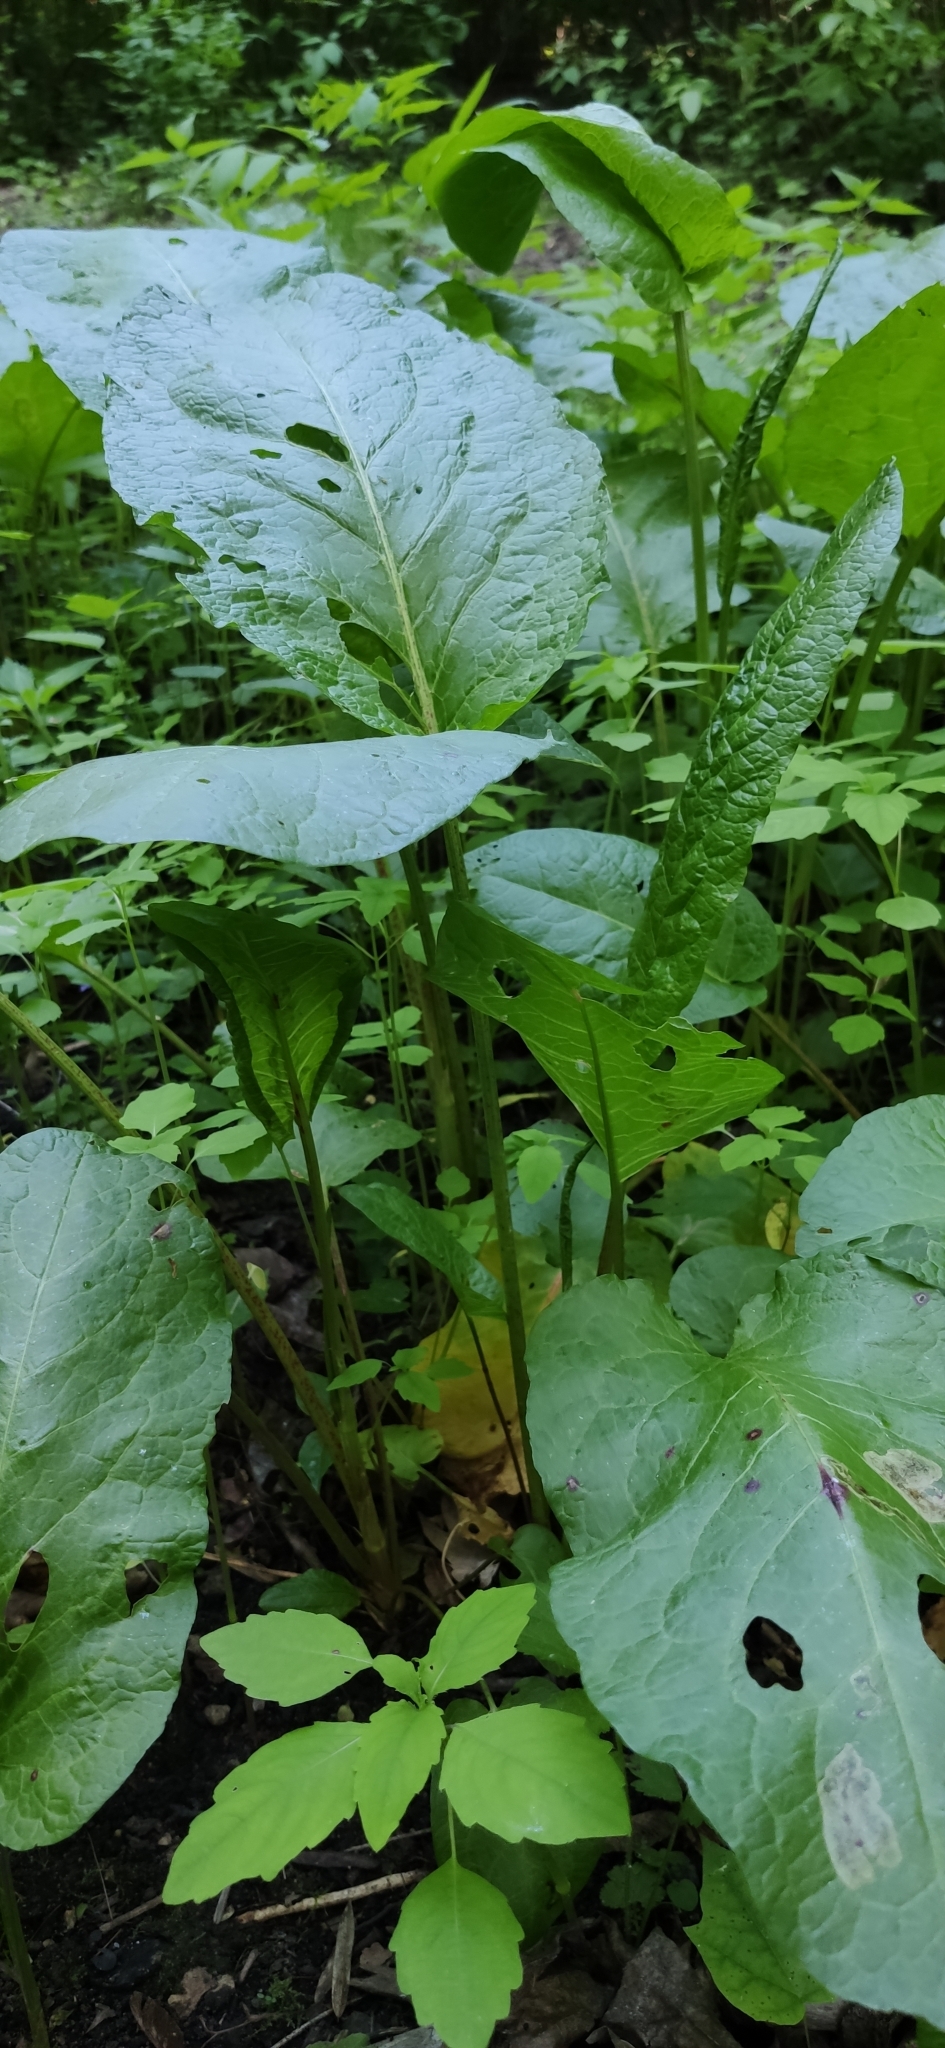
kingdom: Plantae
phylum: Tracheophyta
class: Magnoliopsida
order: Caryophyllales
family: Polygonaceae
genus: Rumex
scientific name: Rumex obtusifolius
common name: Bitter dock
